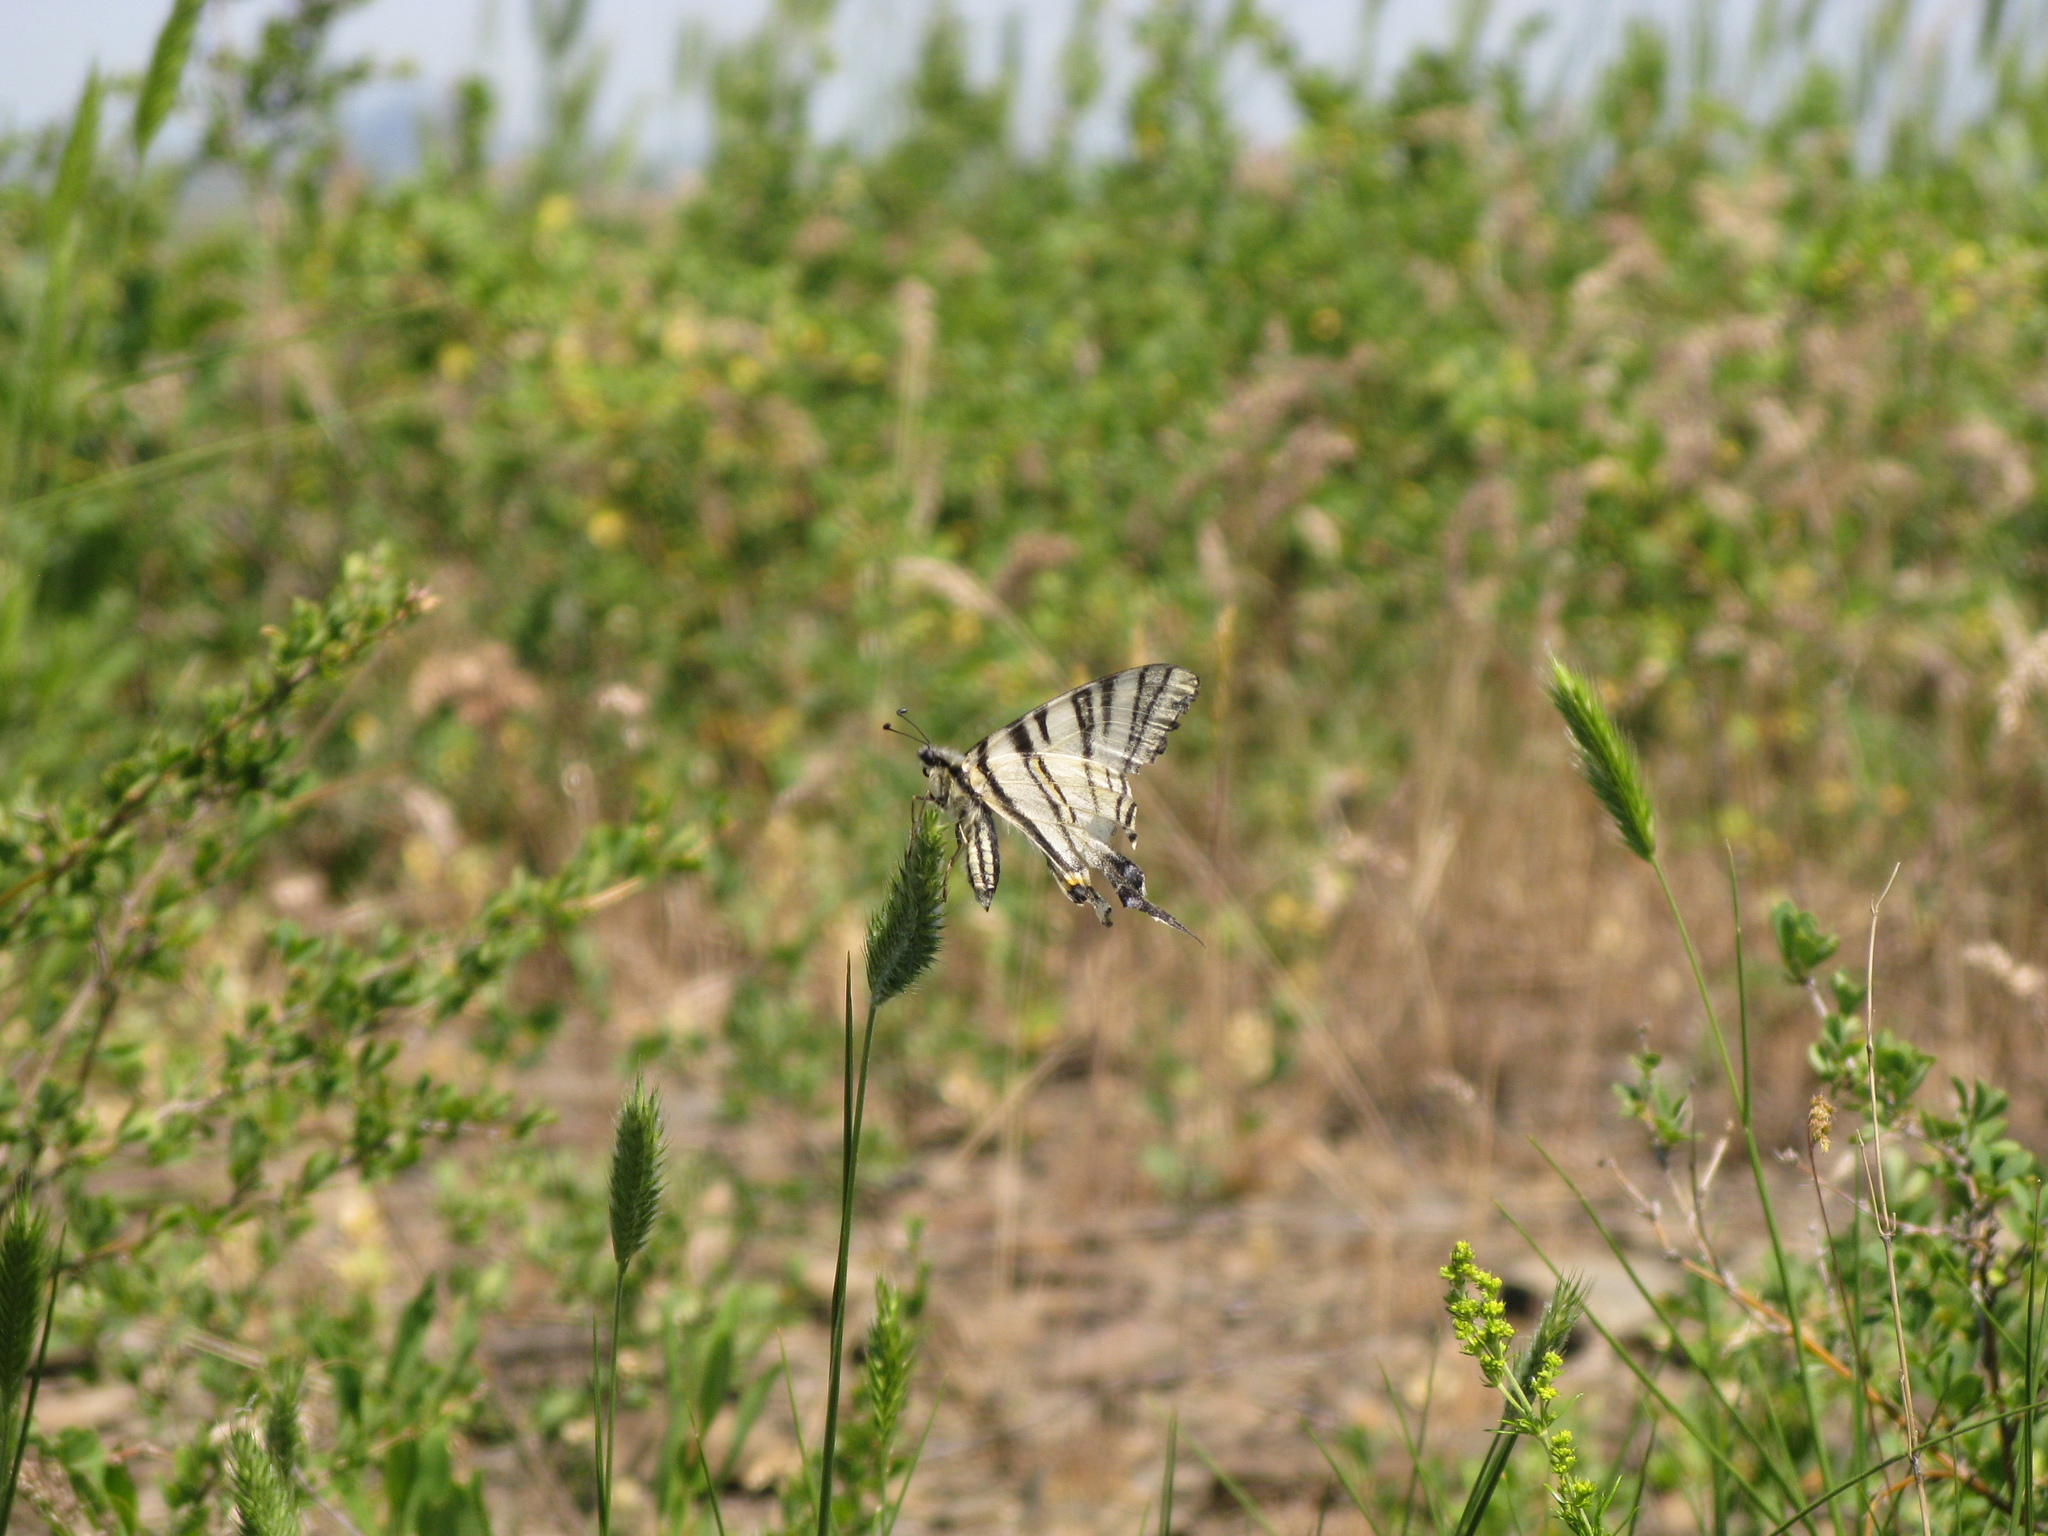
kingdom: Animalia
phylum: Arthropoda
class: Insecta
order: Lepidoptera
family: Papilionidae
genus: Iphiclides
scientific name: Iphiclides podalirius
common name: Scarce swallowtail
